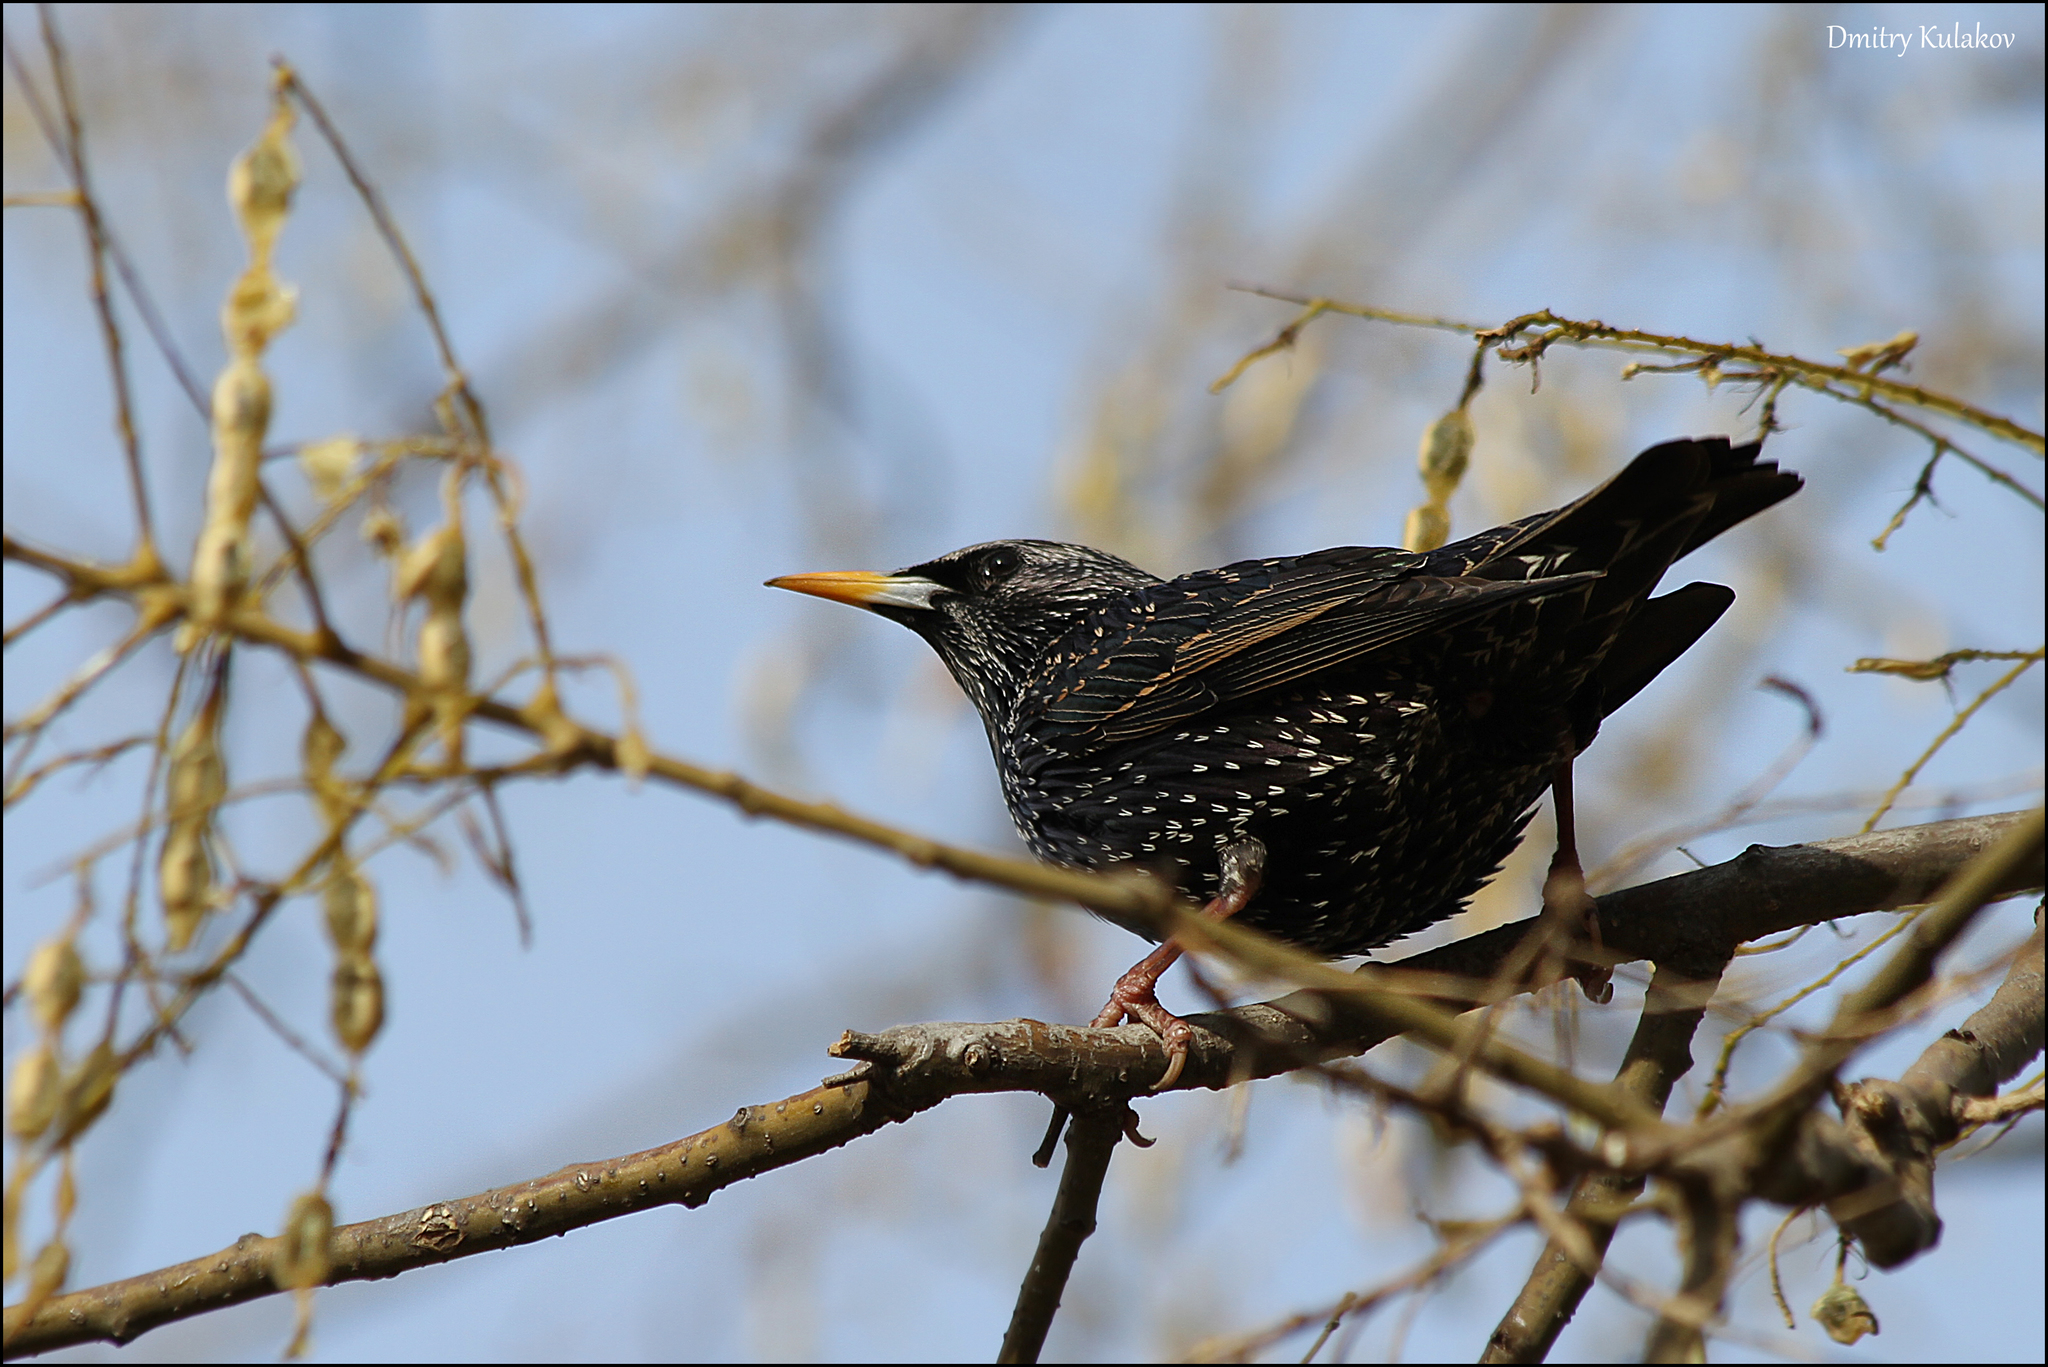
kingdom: Animalia
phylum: Chordata
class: Aves
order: Passeriformes
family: Sturnidae
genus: Sturnus
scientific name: Sturnus vulgaris
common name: Common starling
